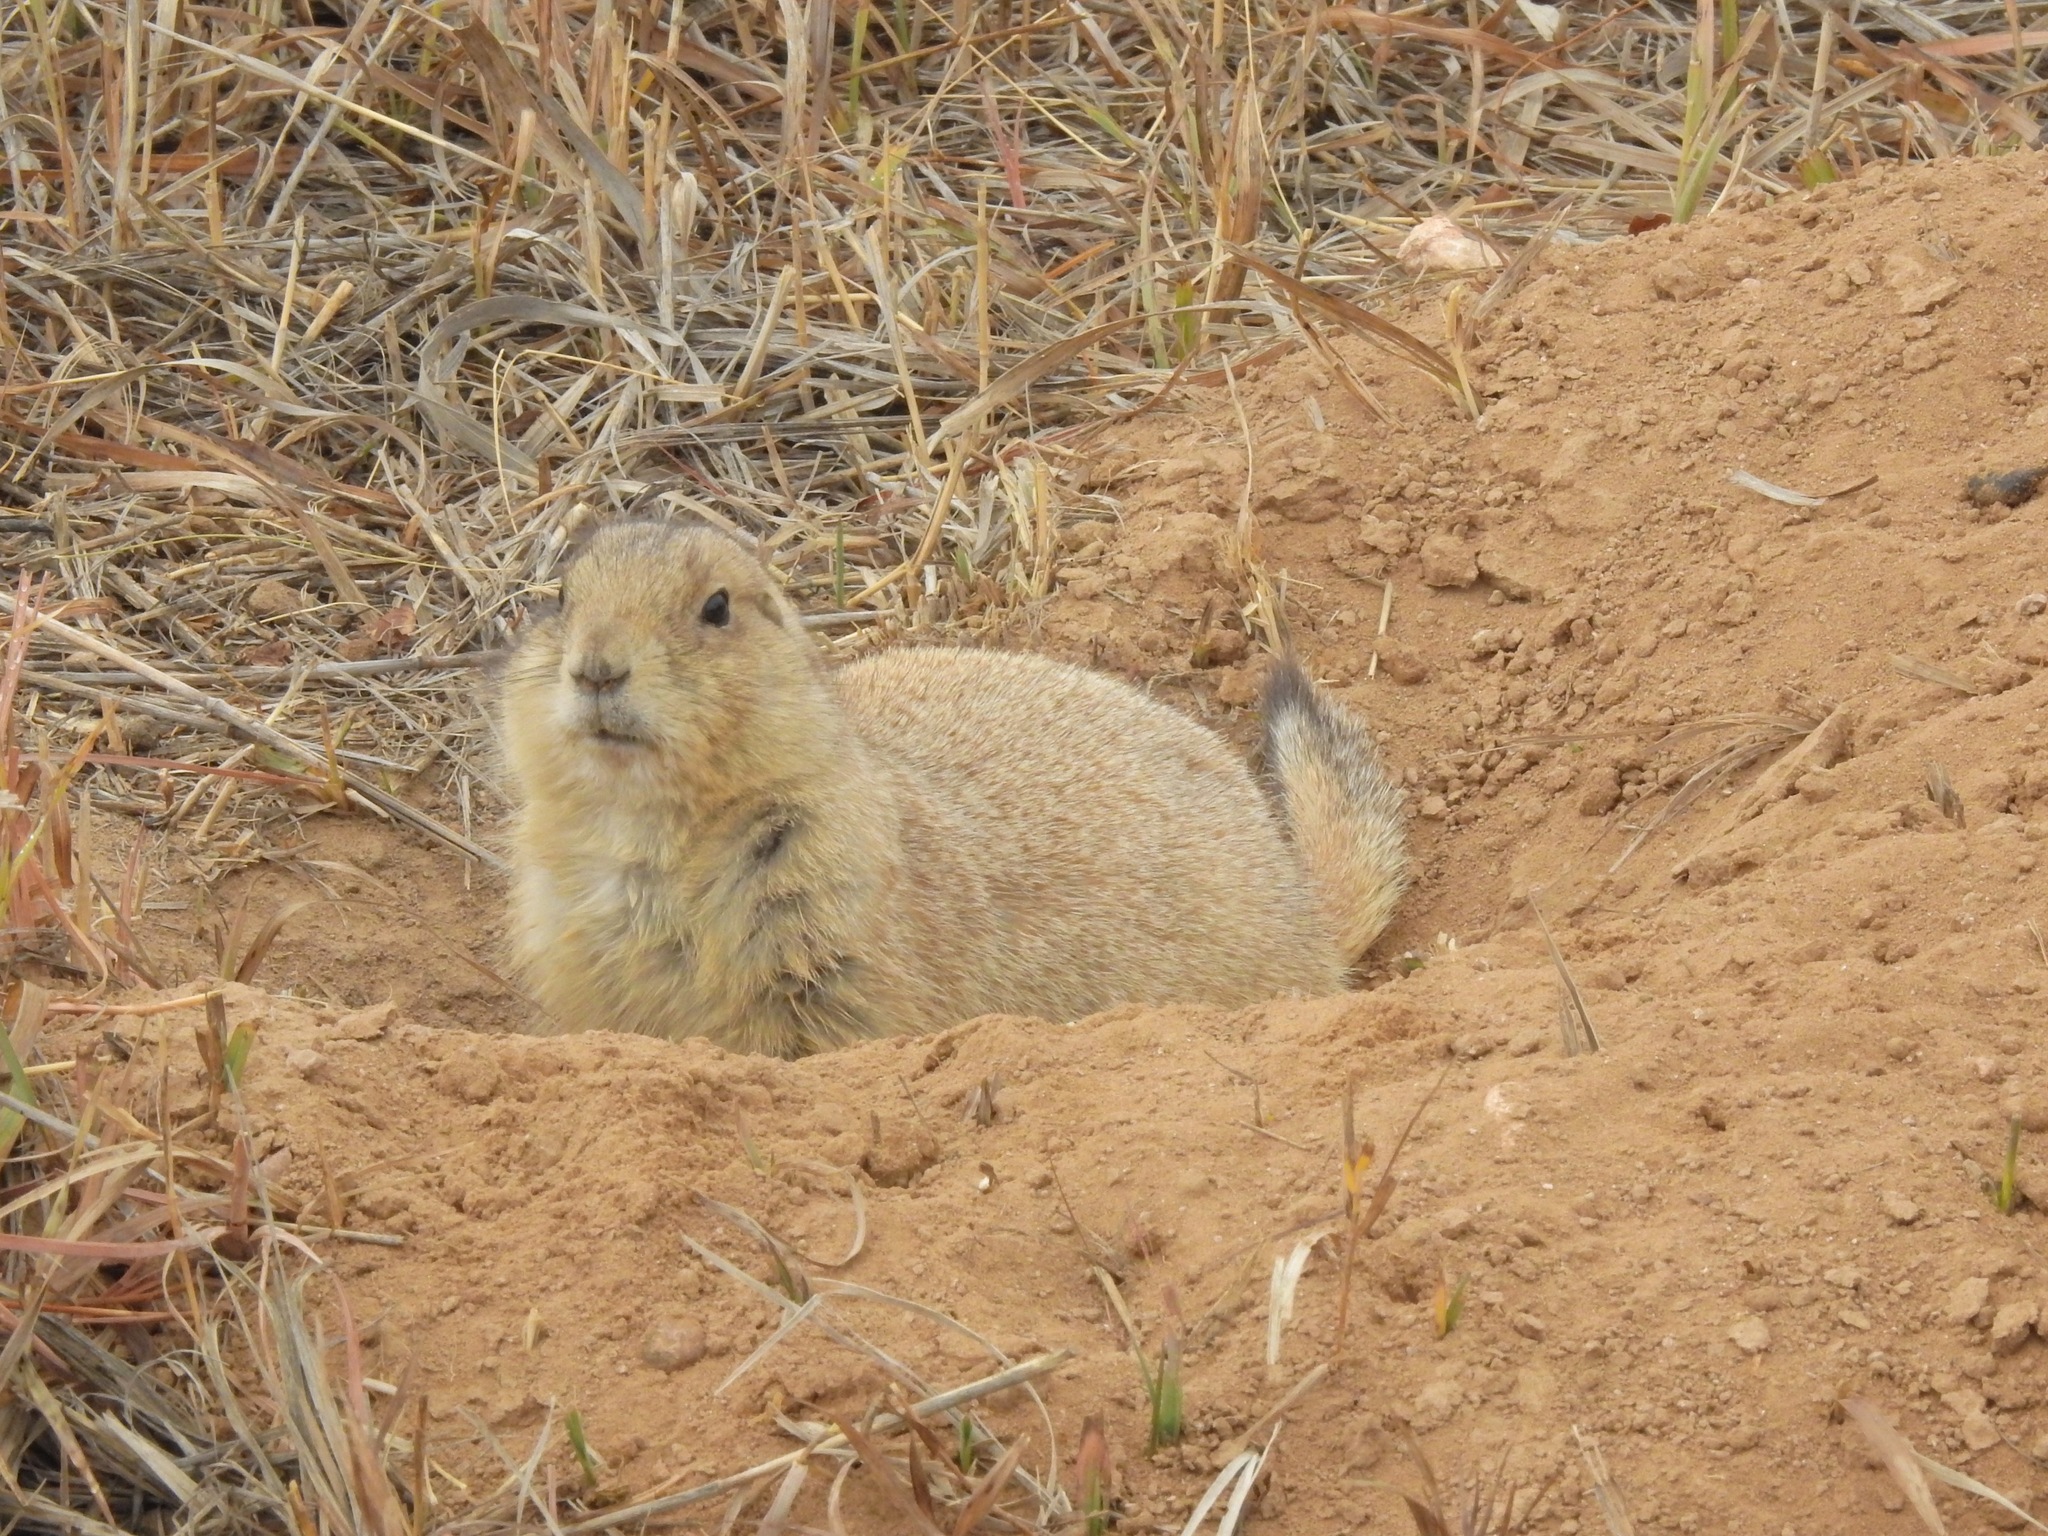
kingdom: Animalia
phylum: Chordata
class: Mammalia
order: Rodentia
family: Sciuridae
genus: Cynomys
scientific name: Cynomys ludovicianus
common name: Black-tailed prairie dog
